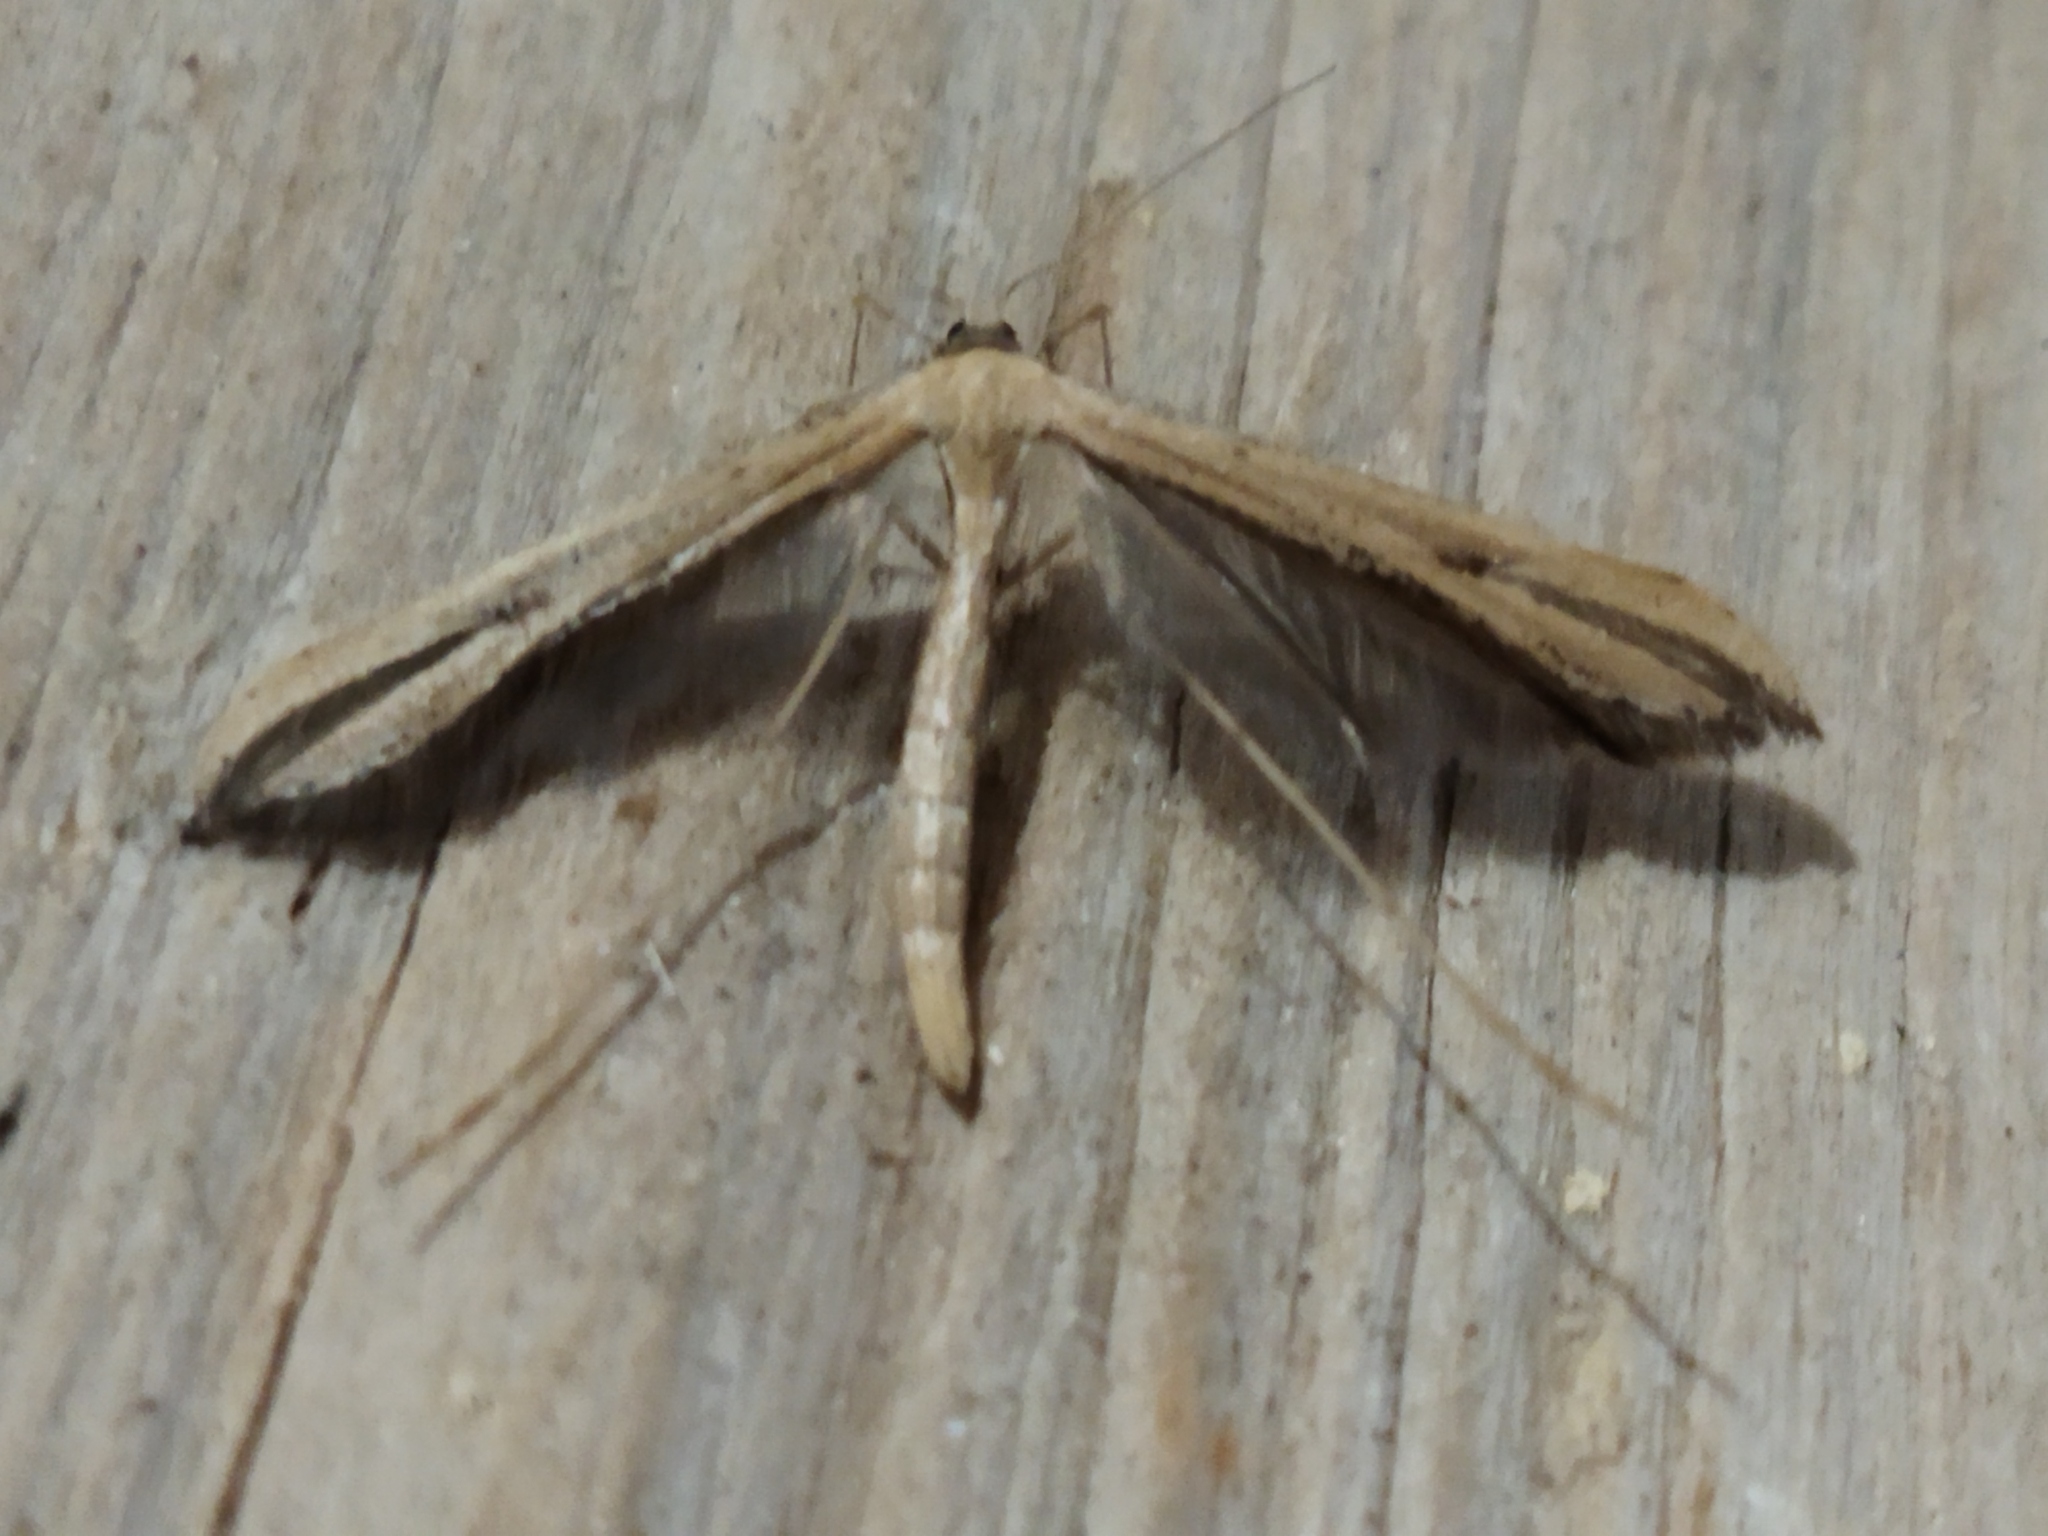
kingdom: Animalia
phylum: Arthropoda
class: Insecta
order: Lepidoptera
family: Pterophoridae
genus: Emmelina
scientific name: Emmelina monodactyla
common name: Common plume
